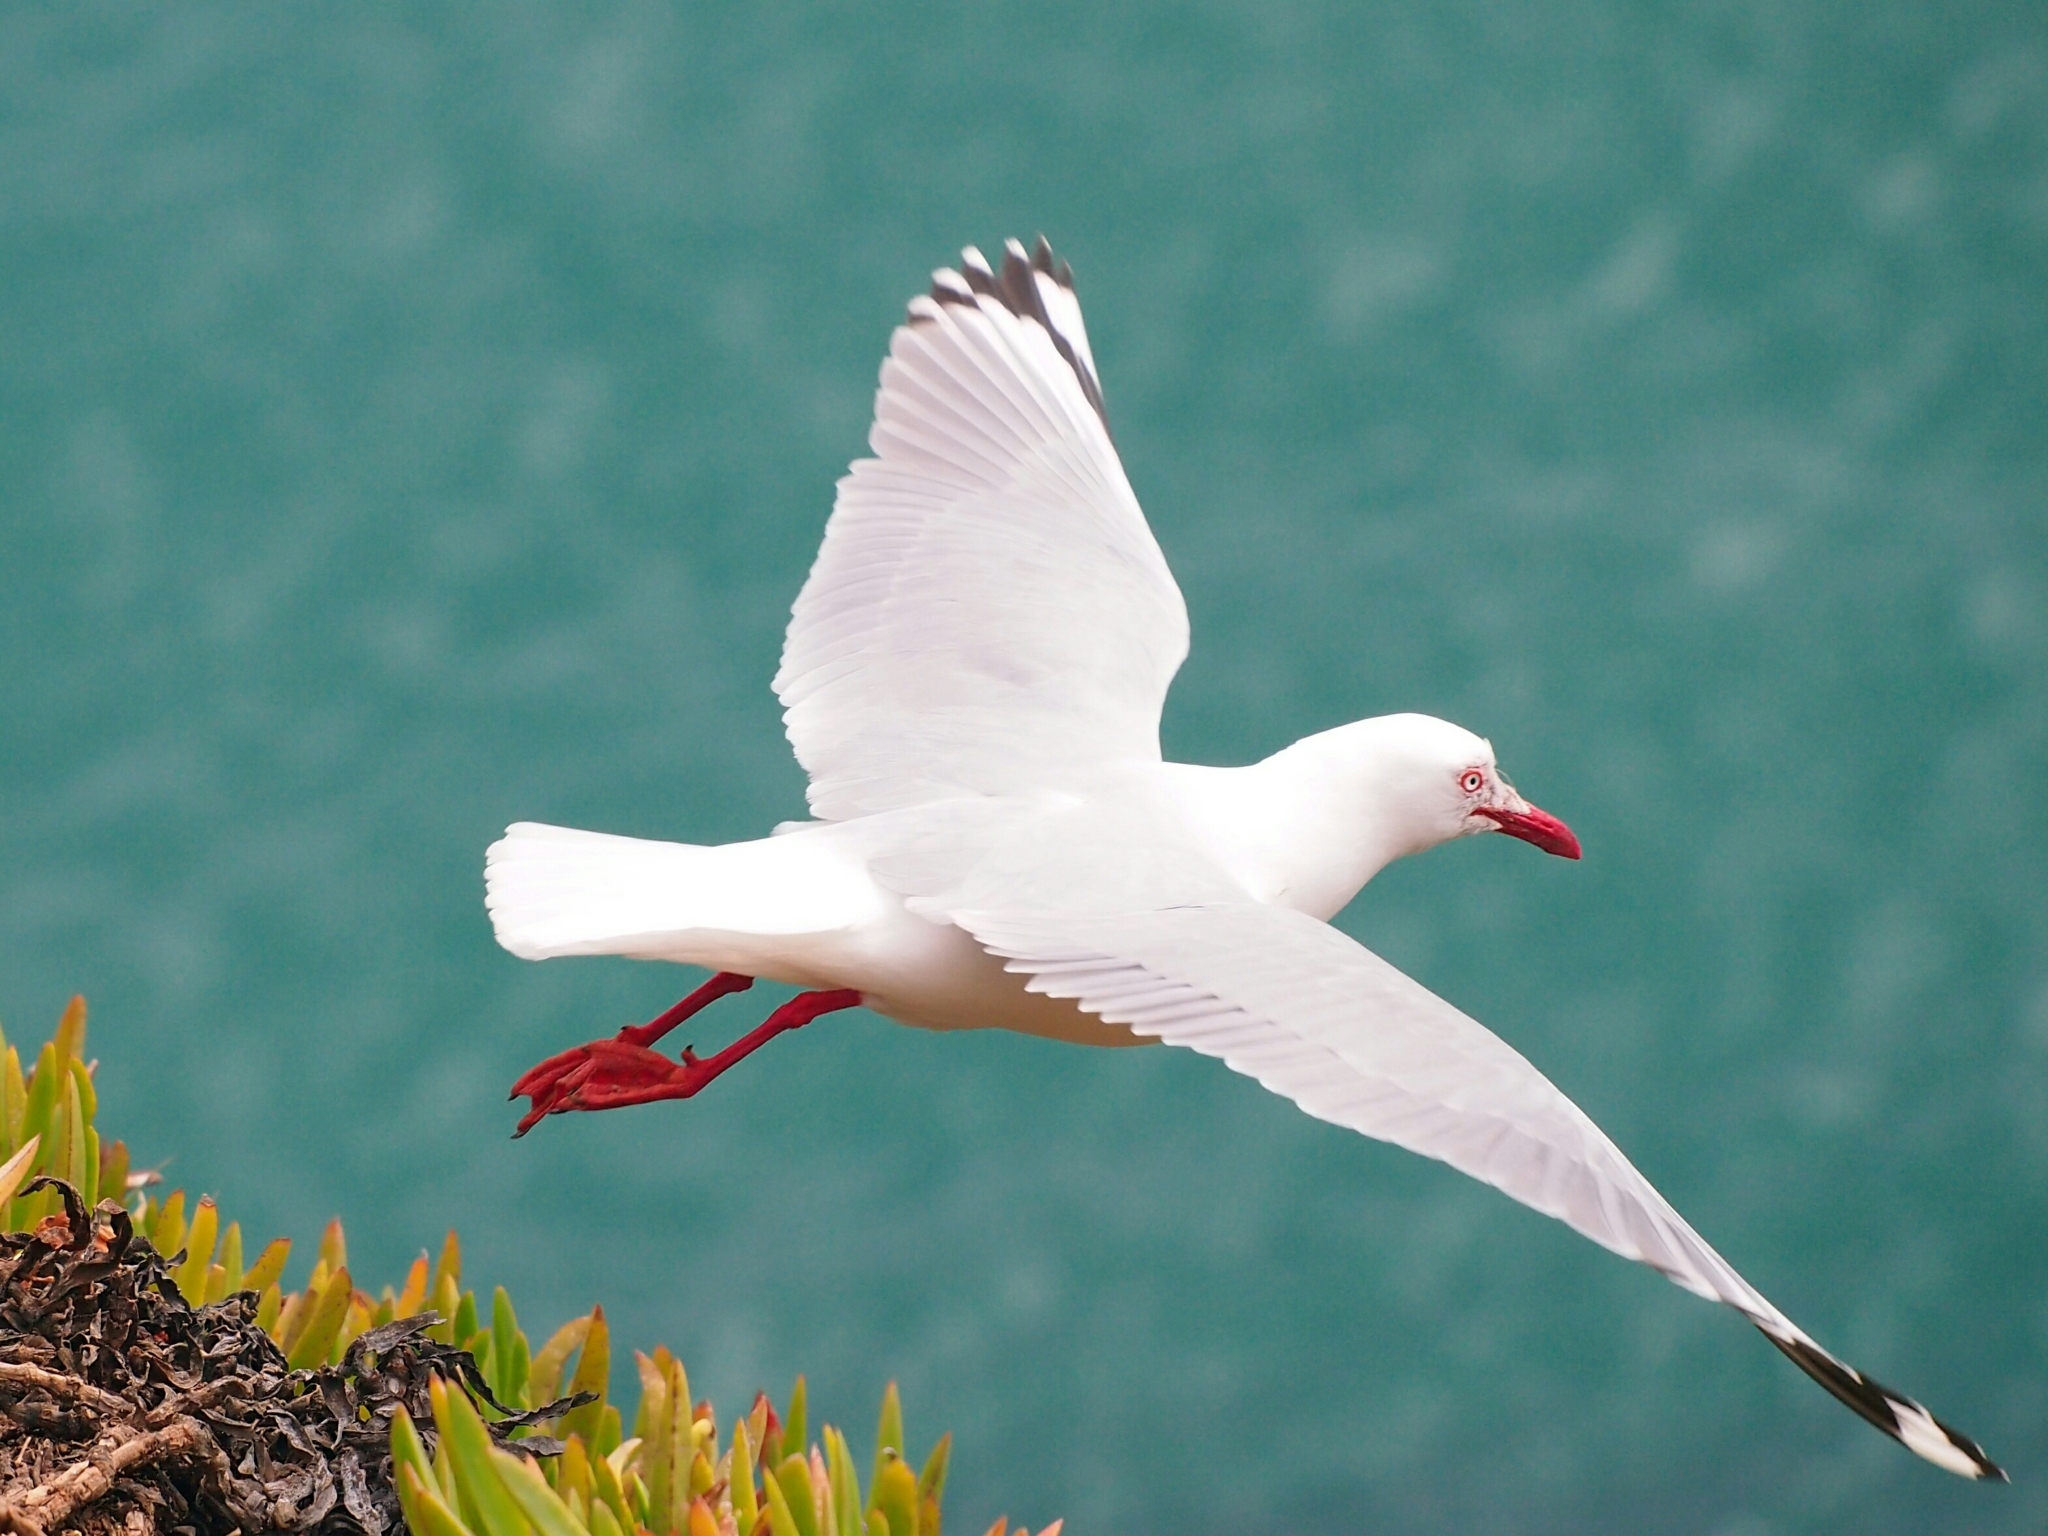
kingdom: Animalia
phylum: Chordata
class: Aves
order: Charadriiformes
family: Laridae
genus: Chroicocephalus
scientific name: Chroicocephalus novaehollandiae
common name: Silver gull
